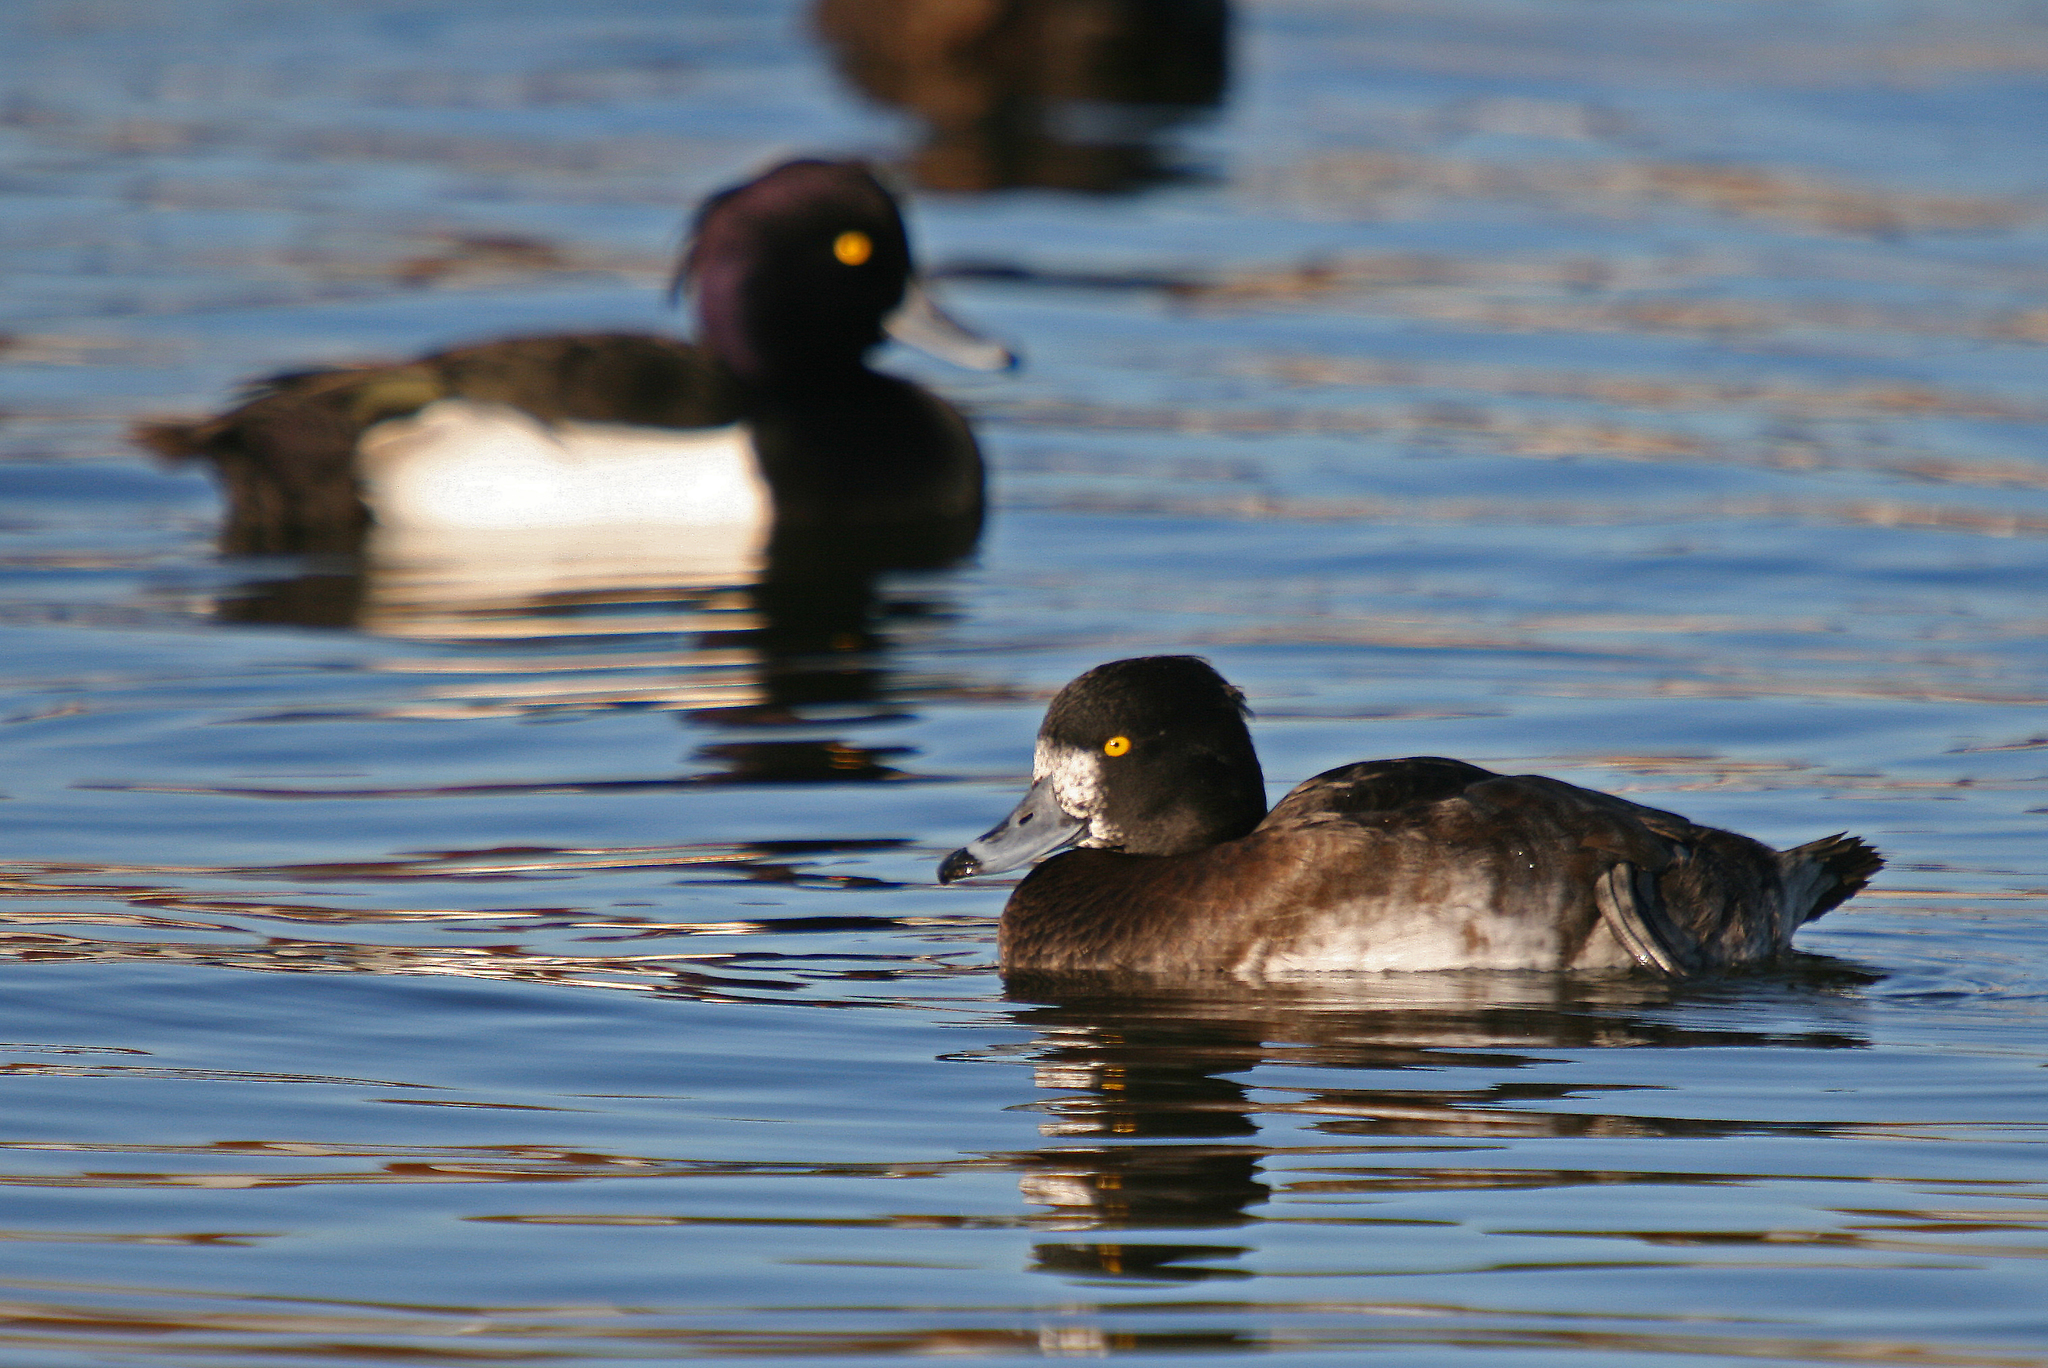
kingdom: Animalia
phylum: Chordata
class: Aves
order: Anseriformes
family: Anatidae
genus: Aythya
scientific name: Aythya fuligula
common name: Tufted duck
